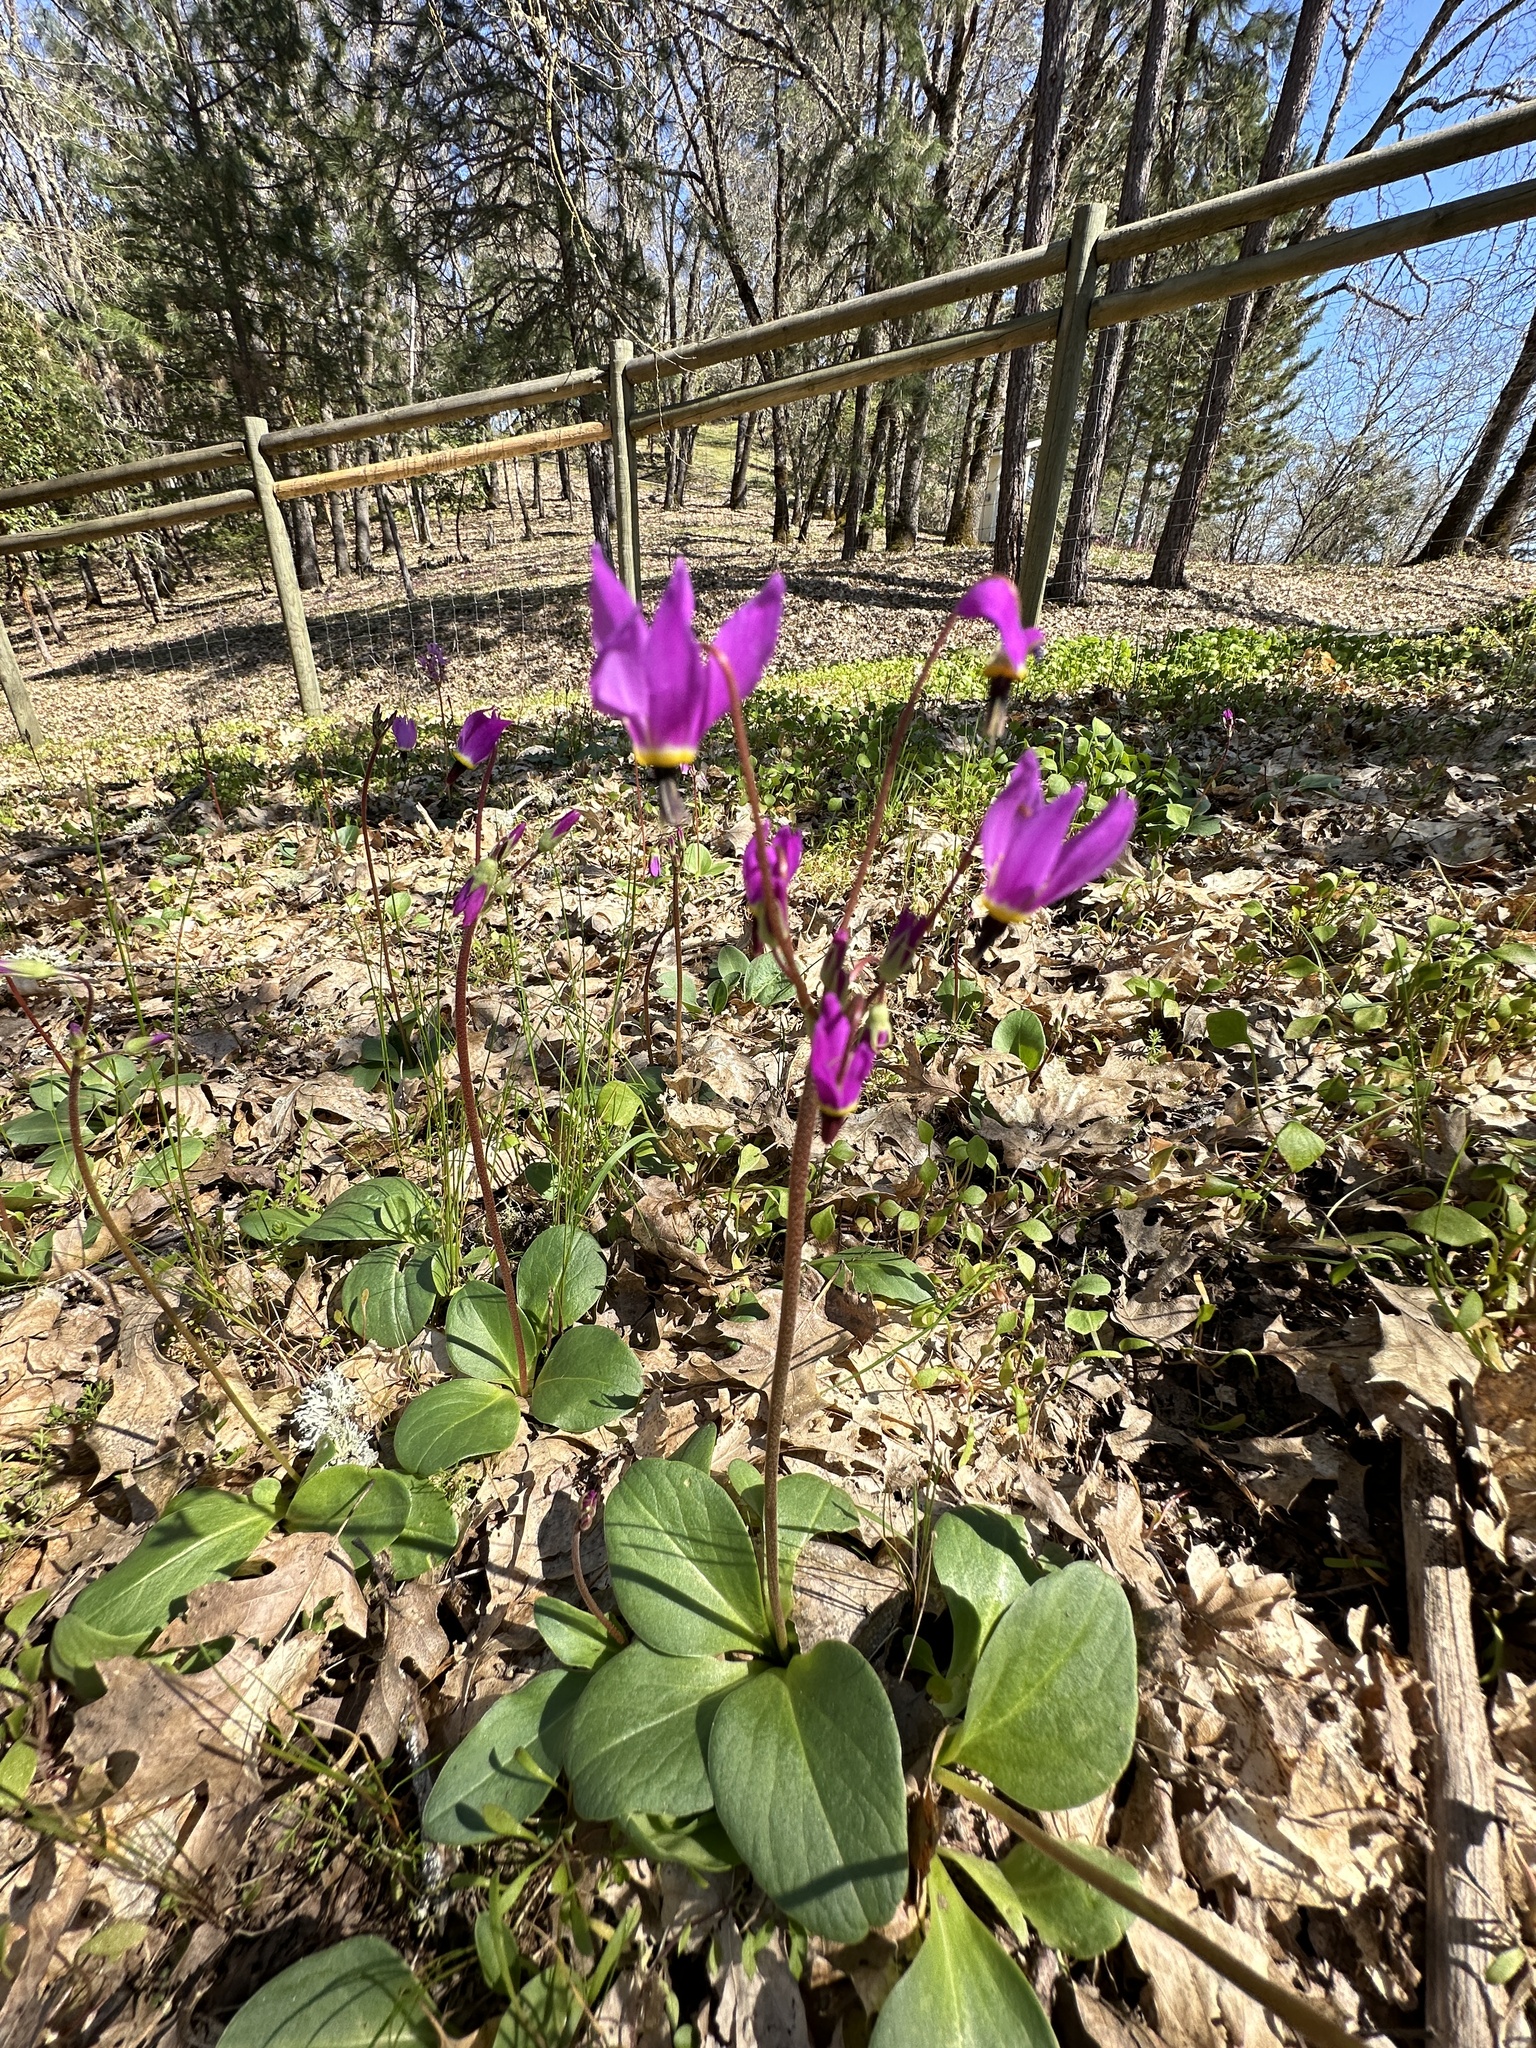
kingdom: Plantae
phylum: Tracheophyta
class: Magnoliopsida
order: Ericales
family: Primulaceae
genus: Dodecatheon
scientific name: Dodecatheon hendersonii
